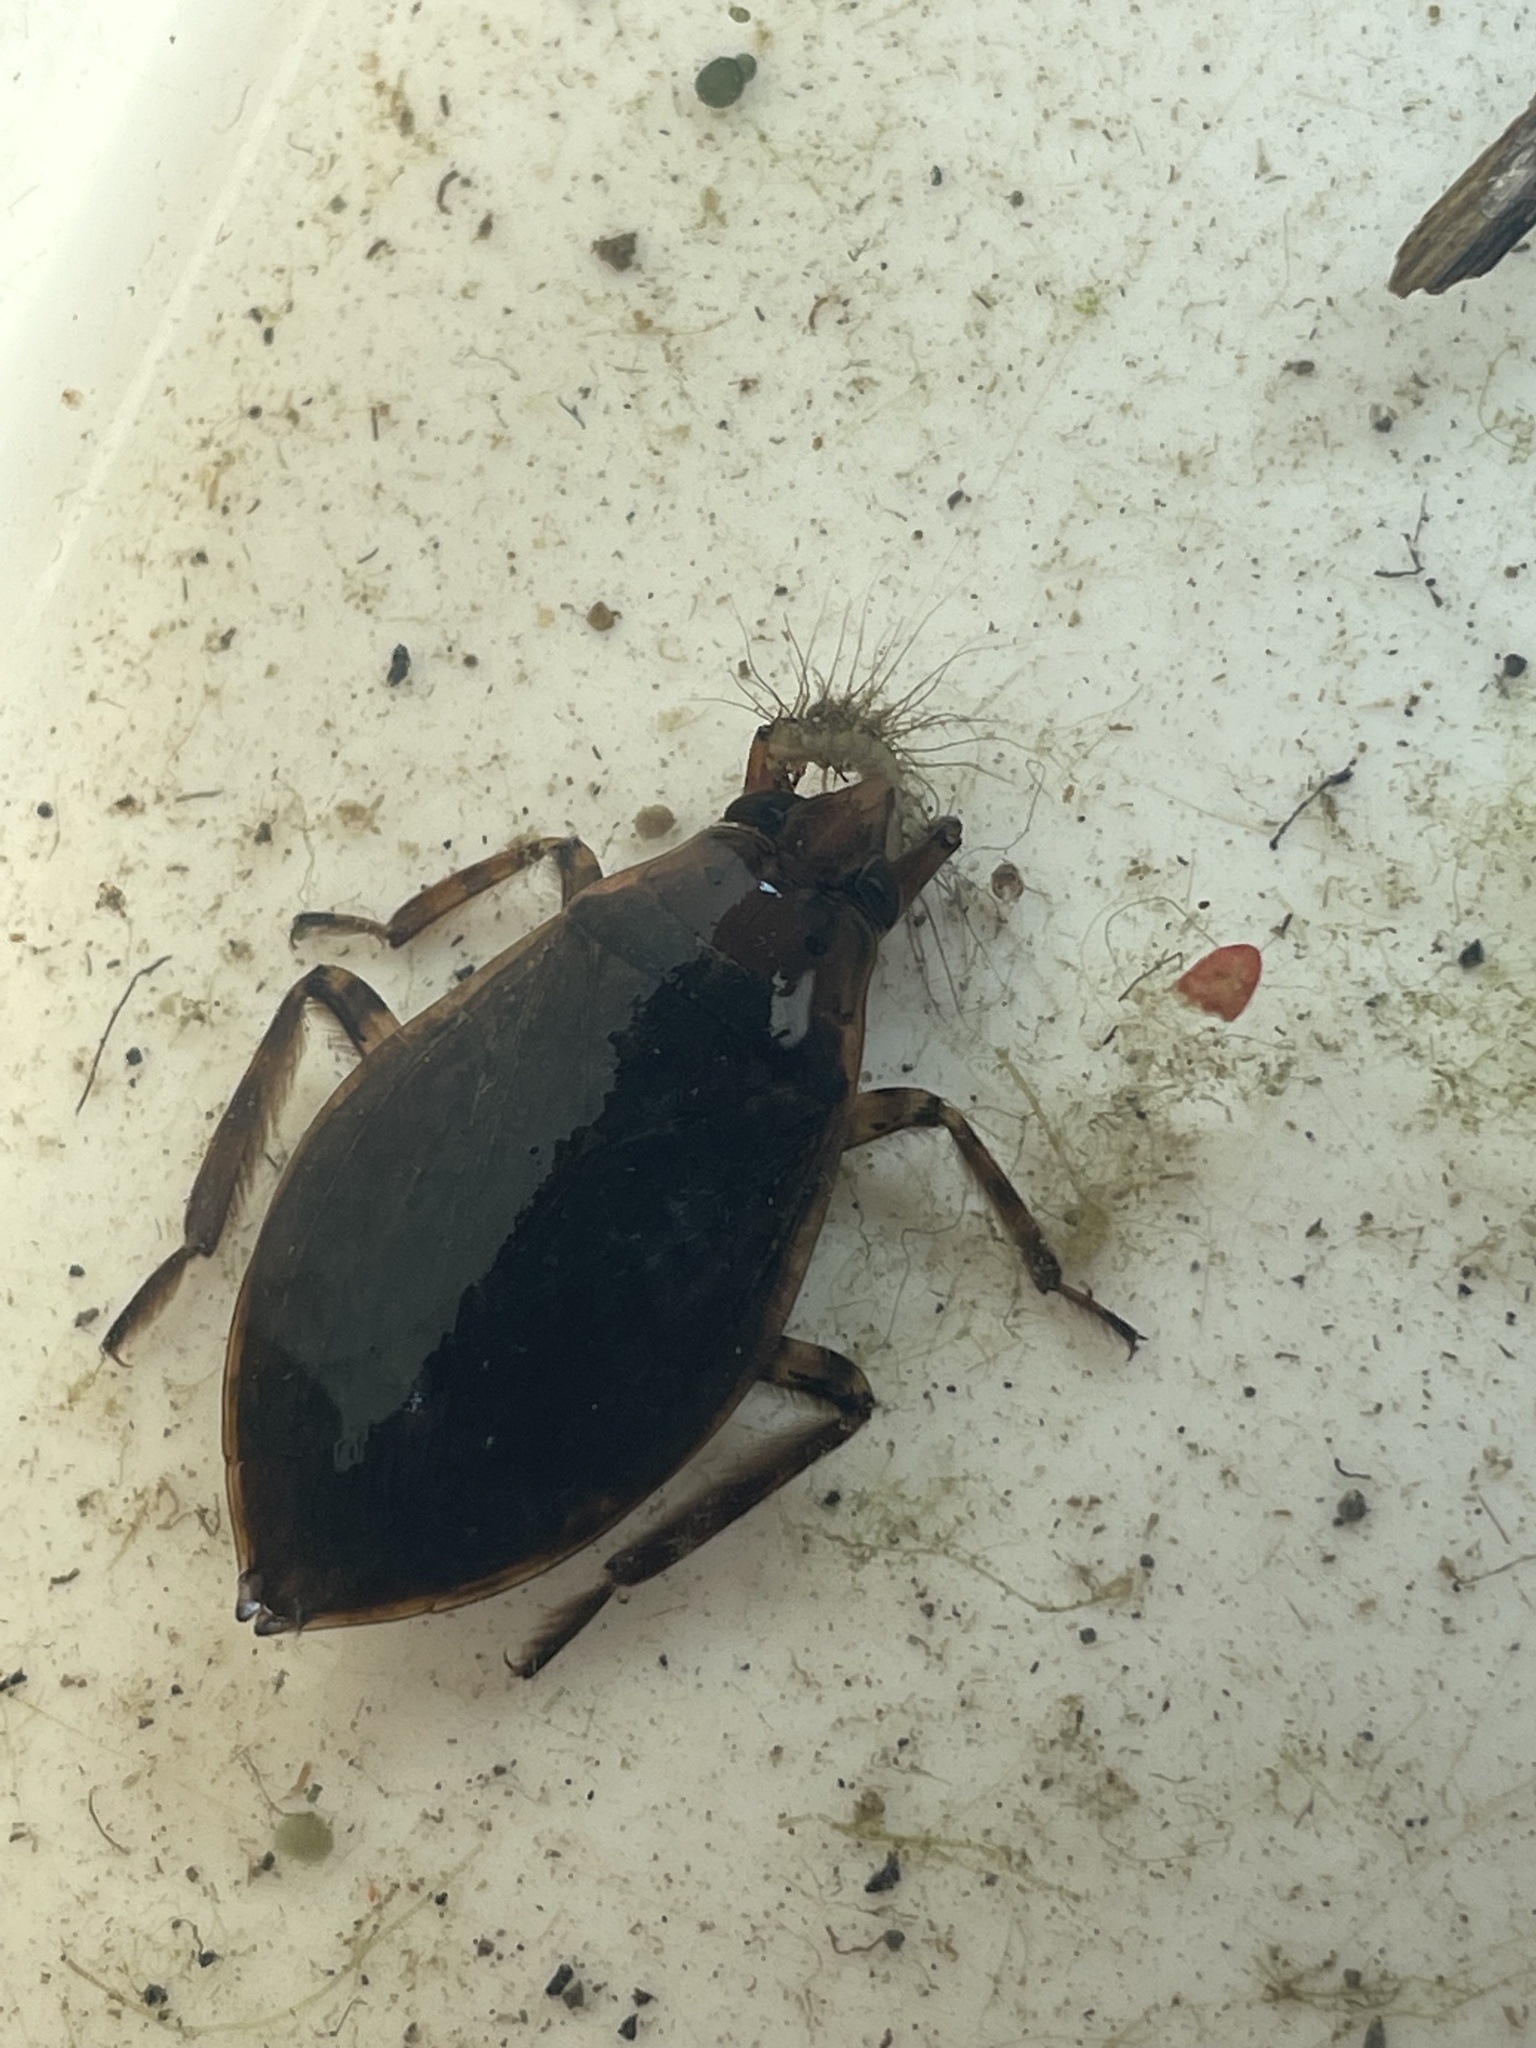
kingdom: Animalia
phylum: Arthropoda
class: Insecta
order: Hemiptera
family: Belostomatidae
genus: Belostoma
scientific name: Belostoma
